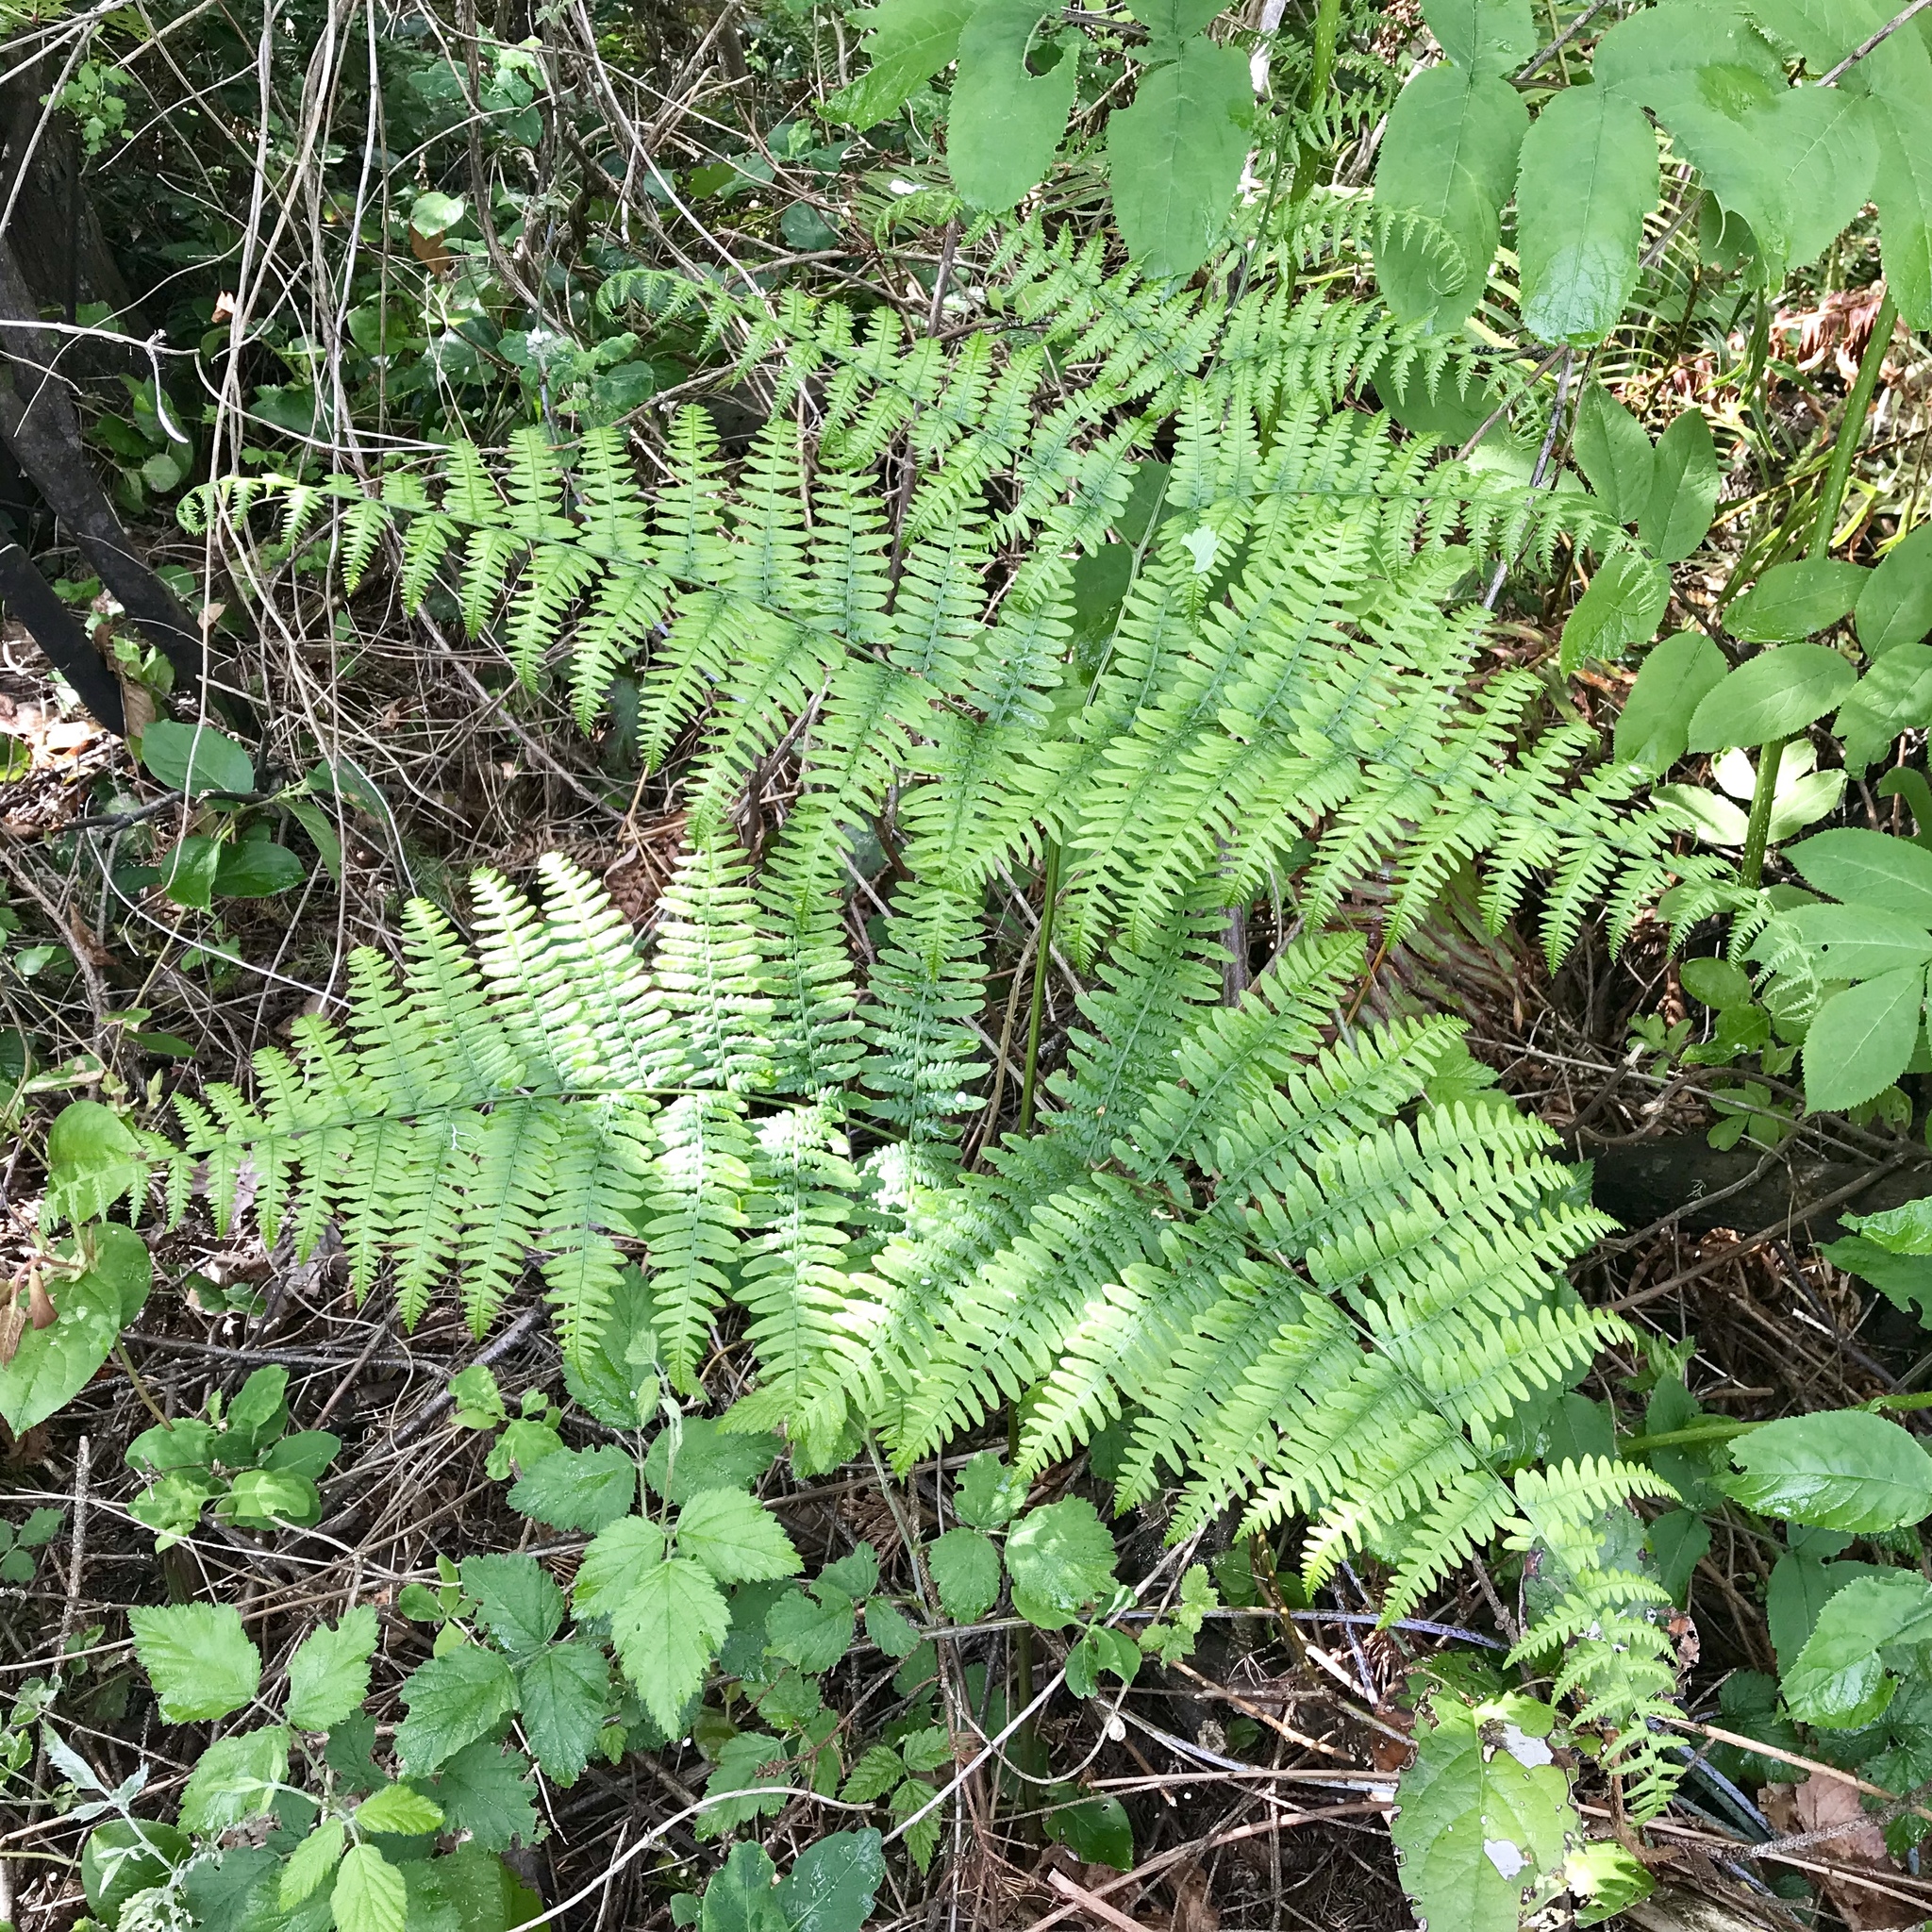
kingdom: Plantae
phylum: Tracheophyta
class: Polypodiopsida
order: Polypodiales
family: Dennstaedtiaceae
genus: Pteridium
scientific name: Pteridium aquilinum
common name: Bracken
